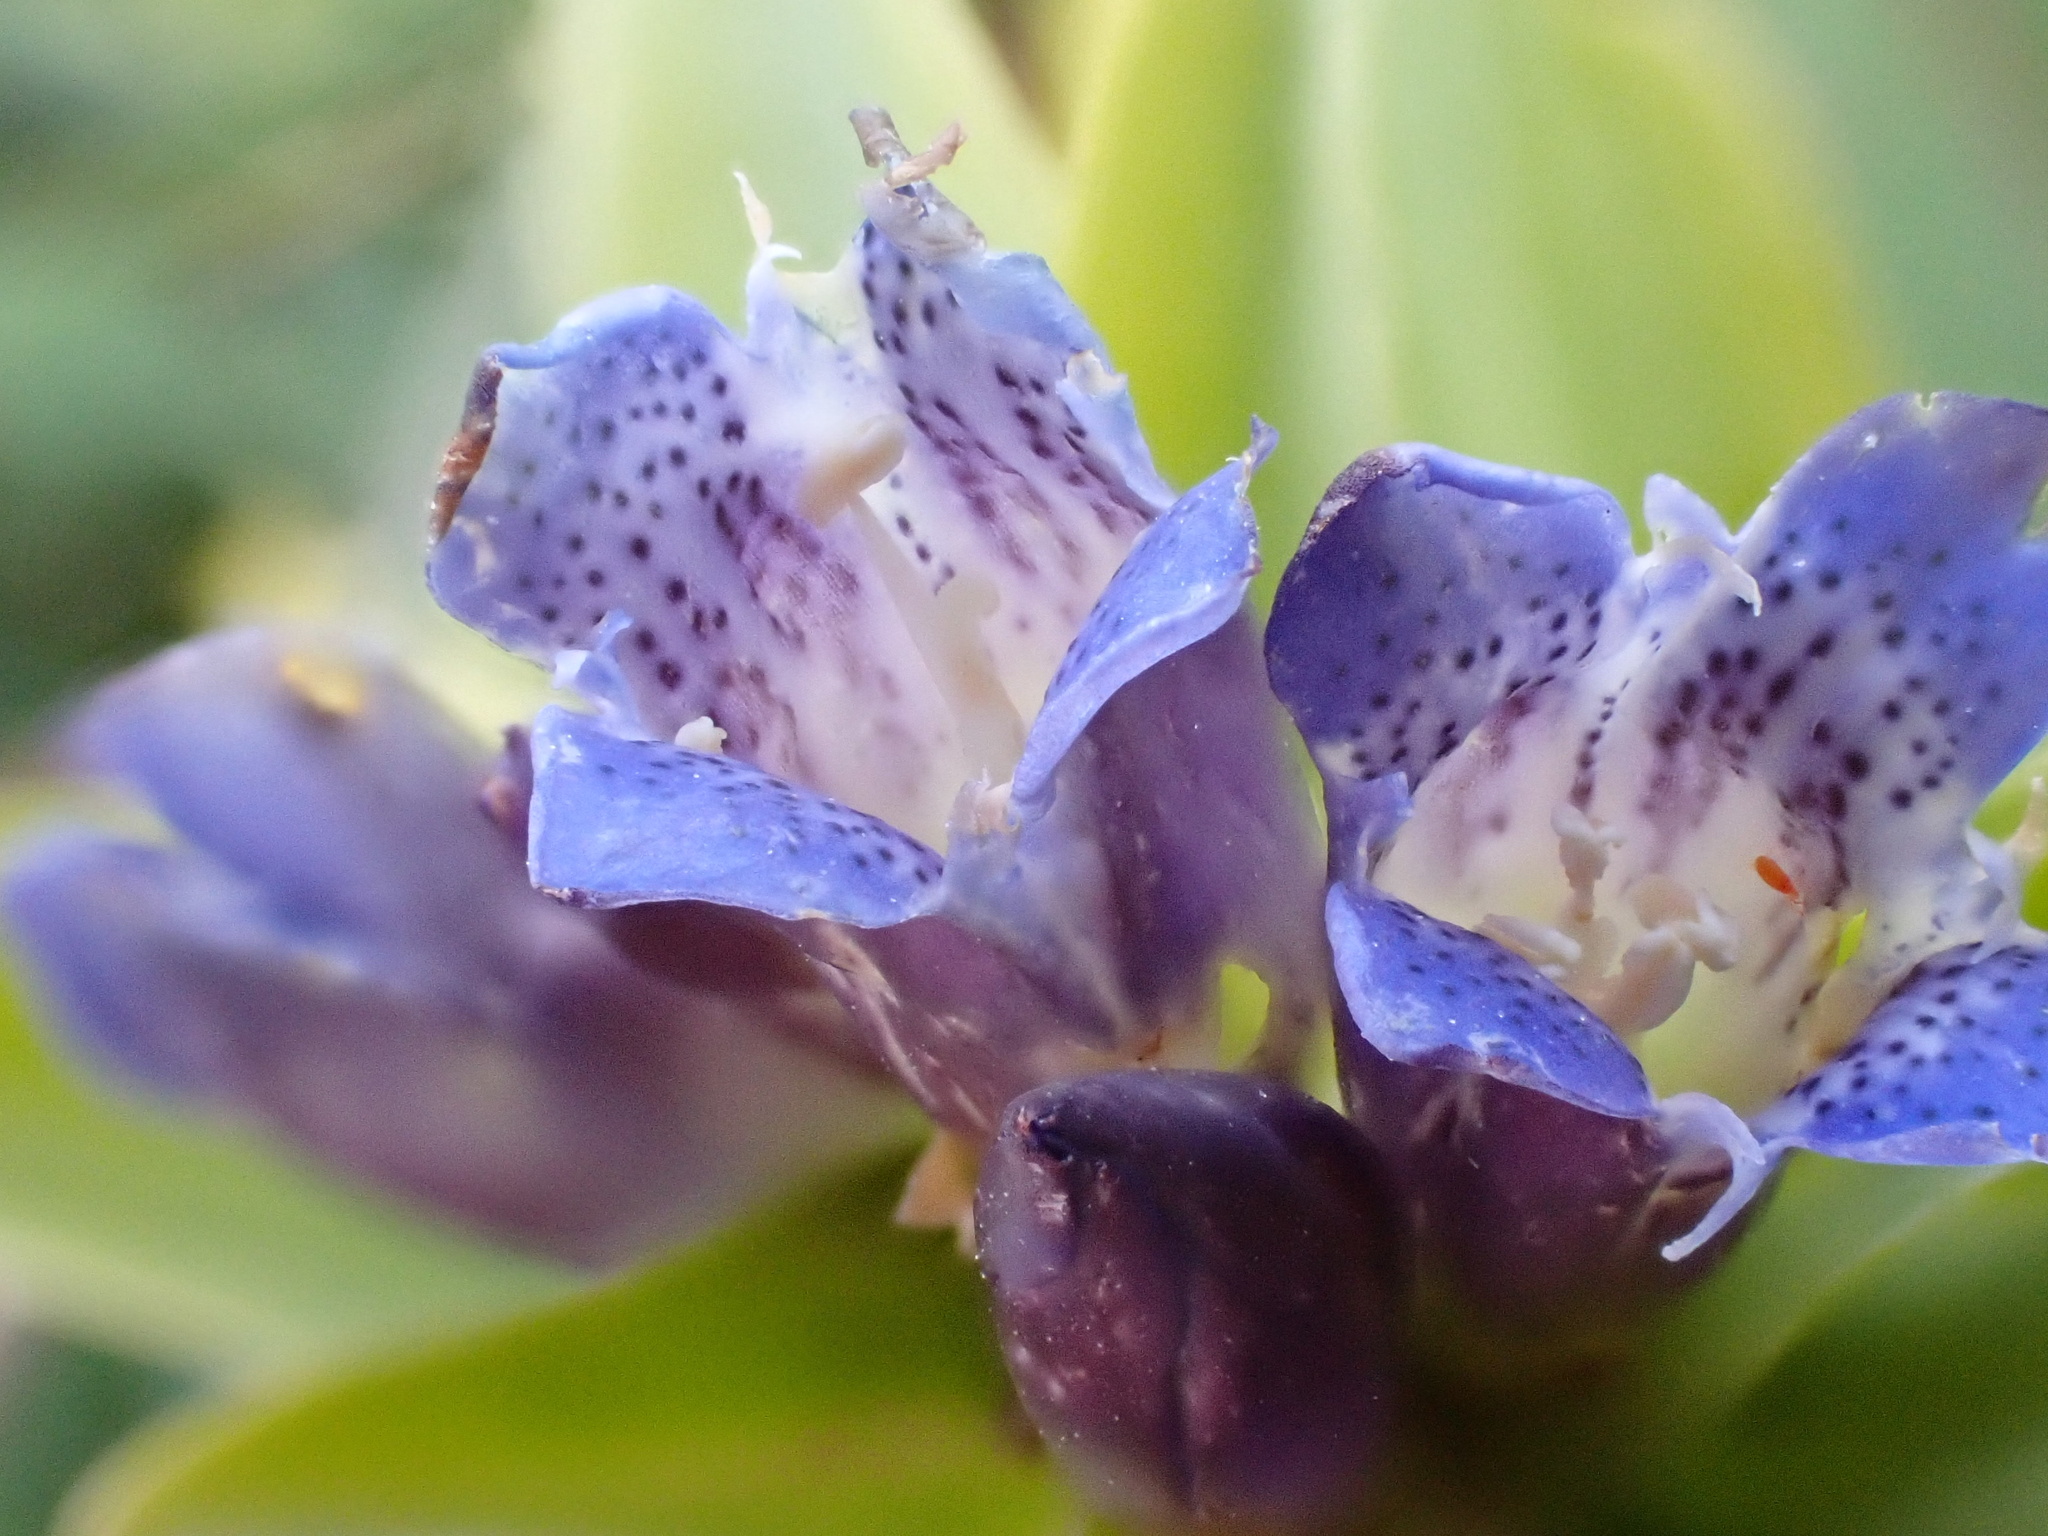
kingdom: Plantae
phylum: Tracheophyta
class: Magnoliopsida
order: Gentianales
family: Gentianaceae
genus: Gentiana
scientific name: Gentiana cruciata
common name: Cross gentian
